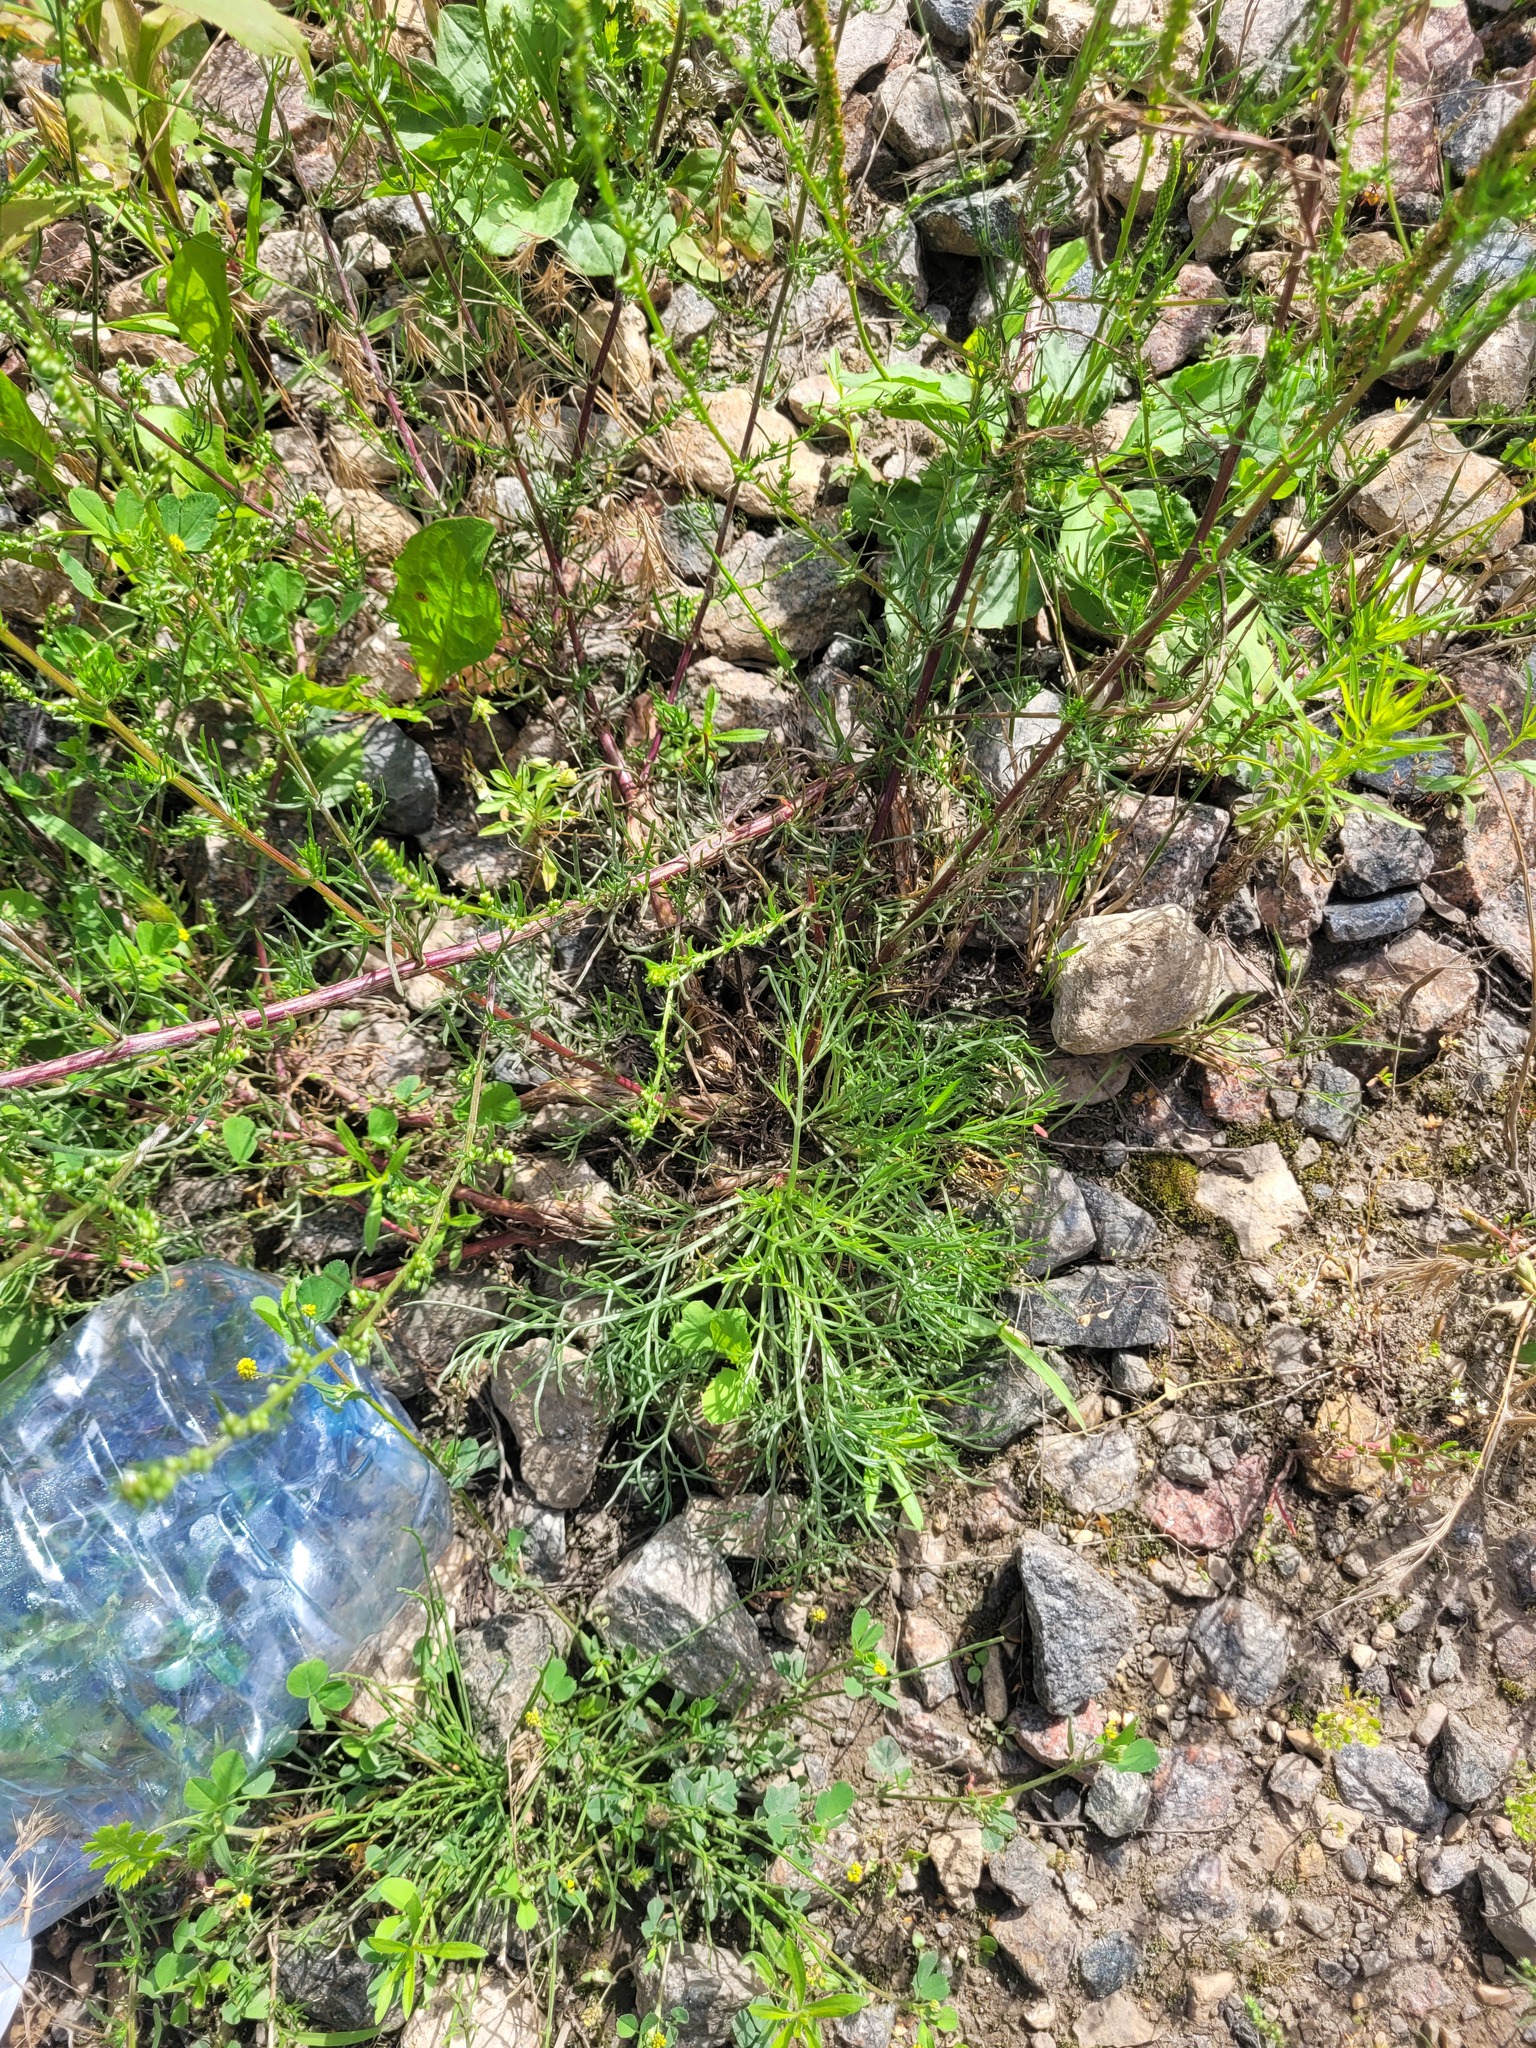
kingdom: Plantae
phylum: Tracheophyta
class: Magnoliopsida
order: Asterales
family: Asteraceae
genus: Artemisia
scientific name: Artemisia campestris
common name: Field wormwood
